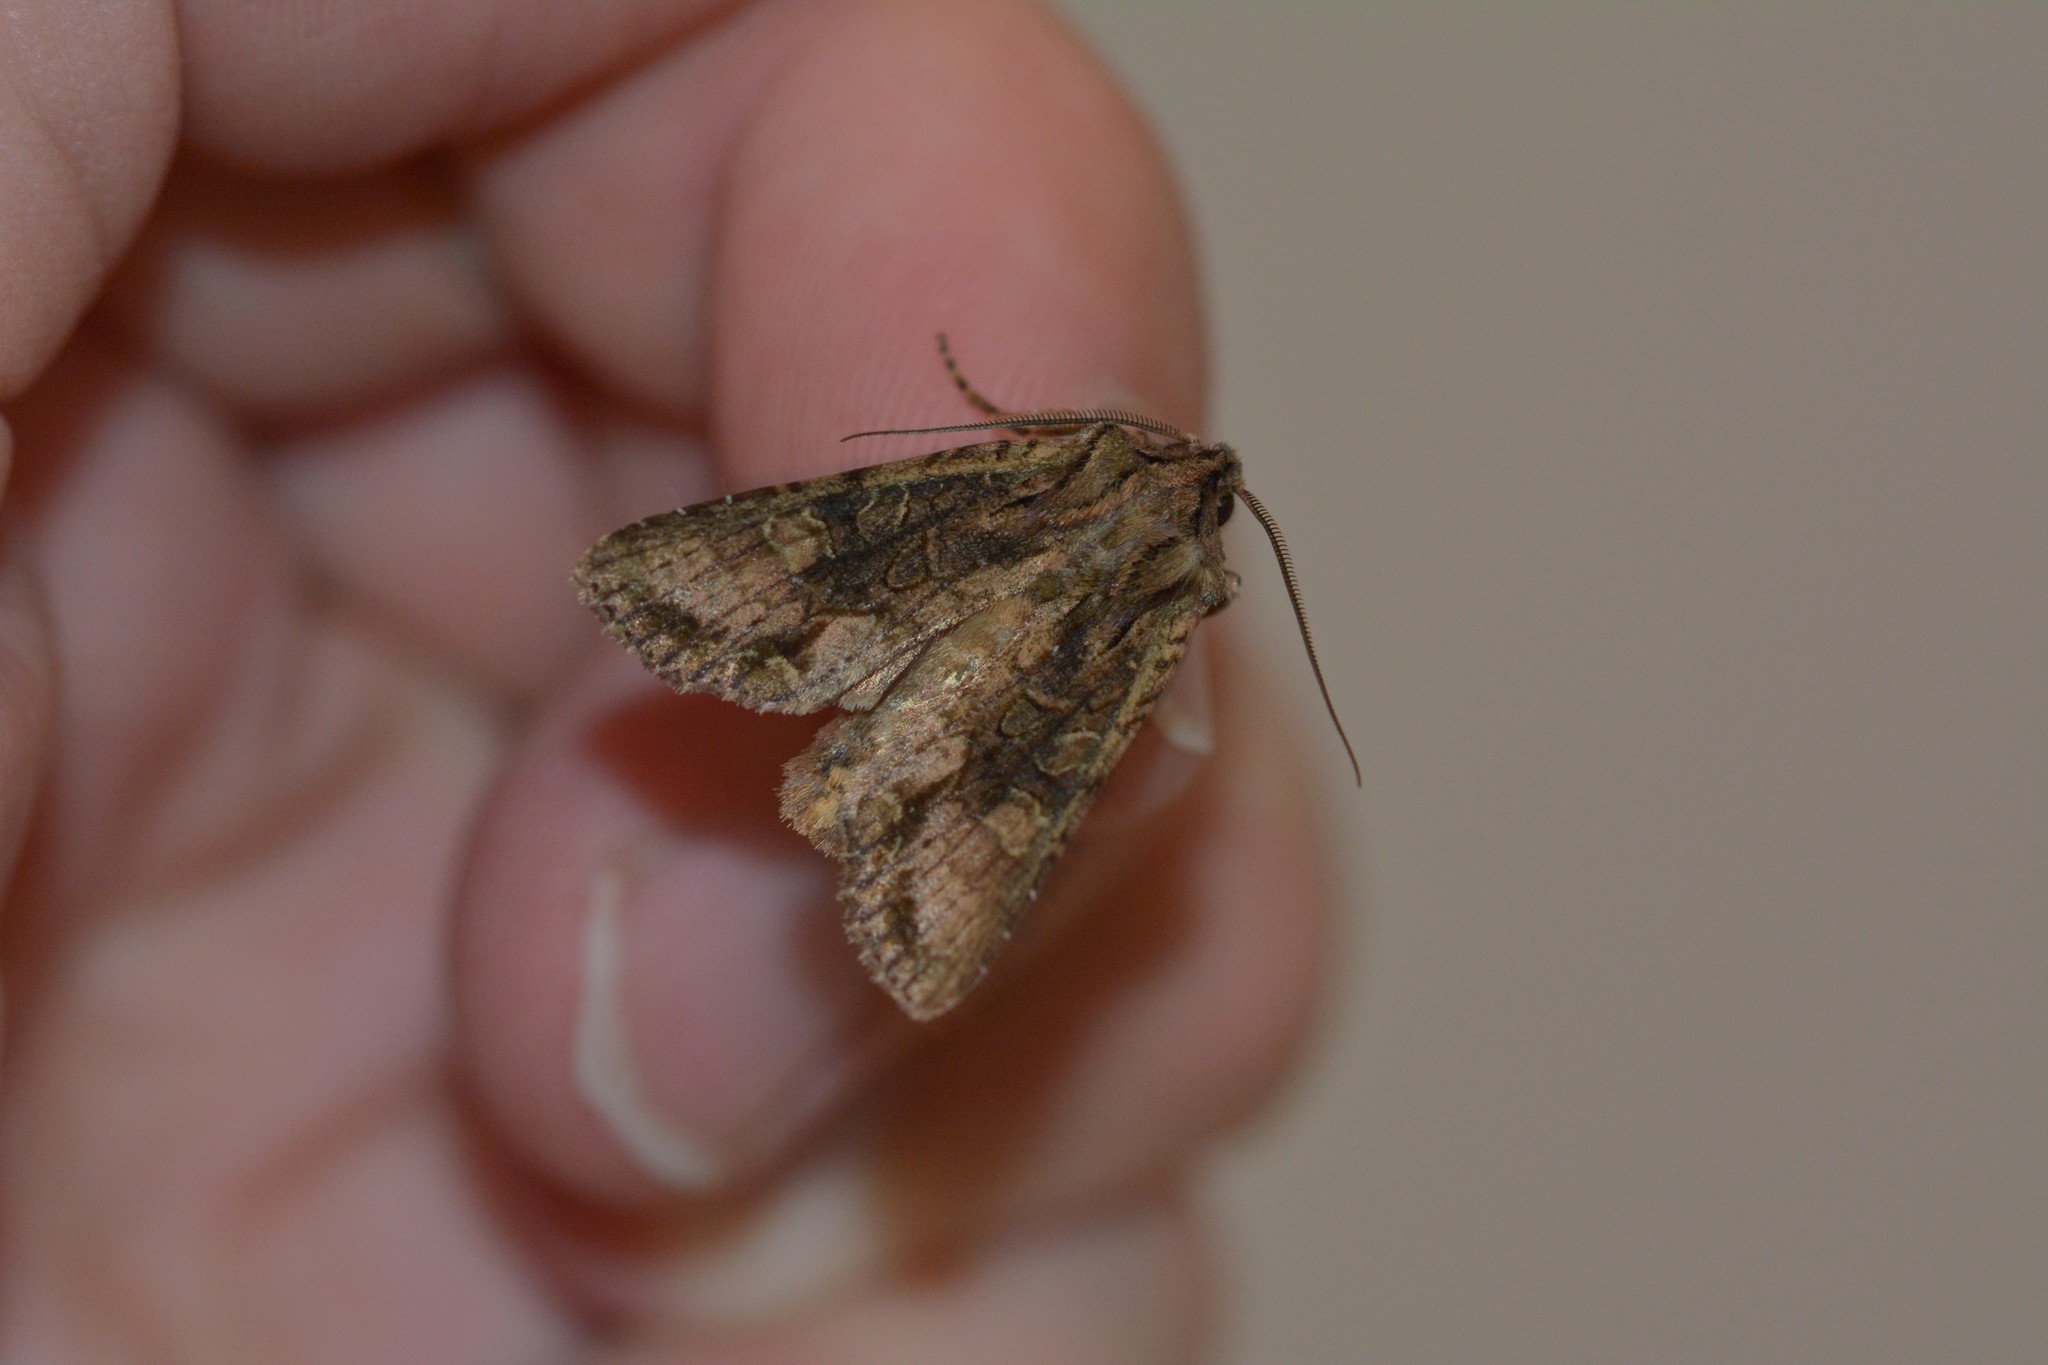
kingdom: Animalia
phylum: Arthropoda
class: Insecta
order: Lepidoptera
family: Noctuidae
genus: Ichneutica
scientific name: Ichneutica mutans
